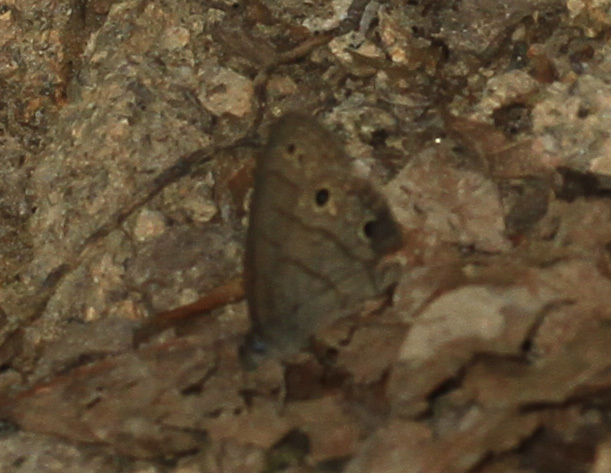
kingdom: Animalia
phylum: Arthropoda
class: Insecta
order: Lepidoptera
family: Nymphalidae
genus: Hermeuptychia
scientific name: Hermeuptychia hermes
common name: Hermes satyr
